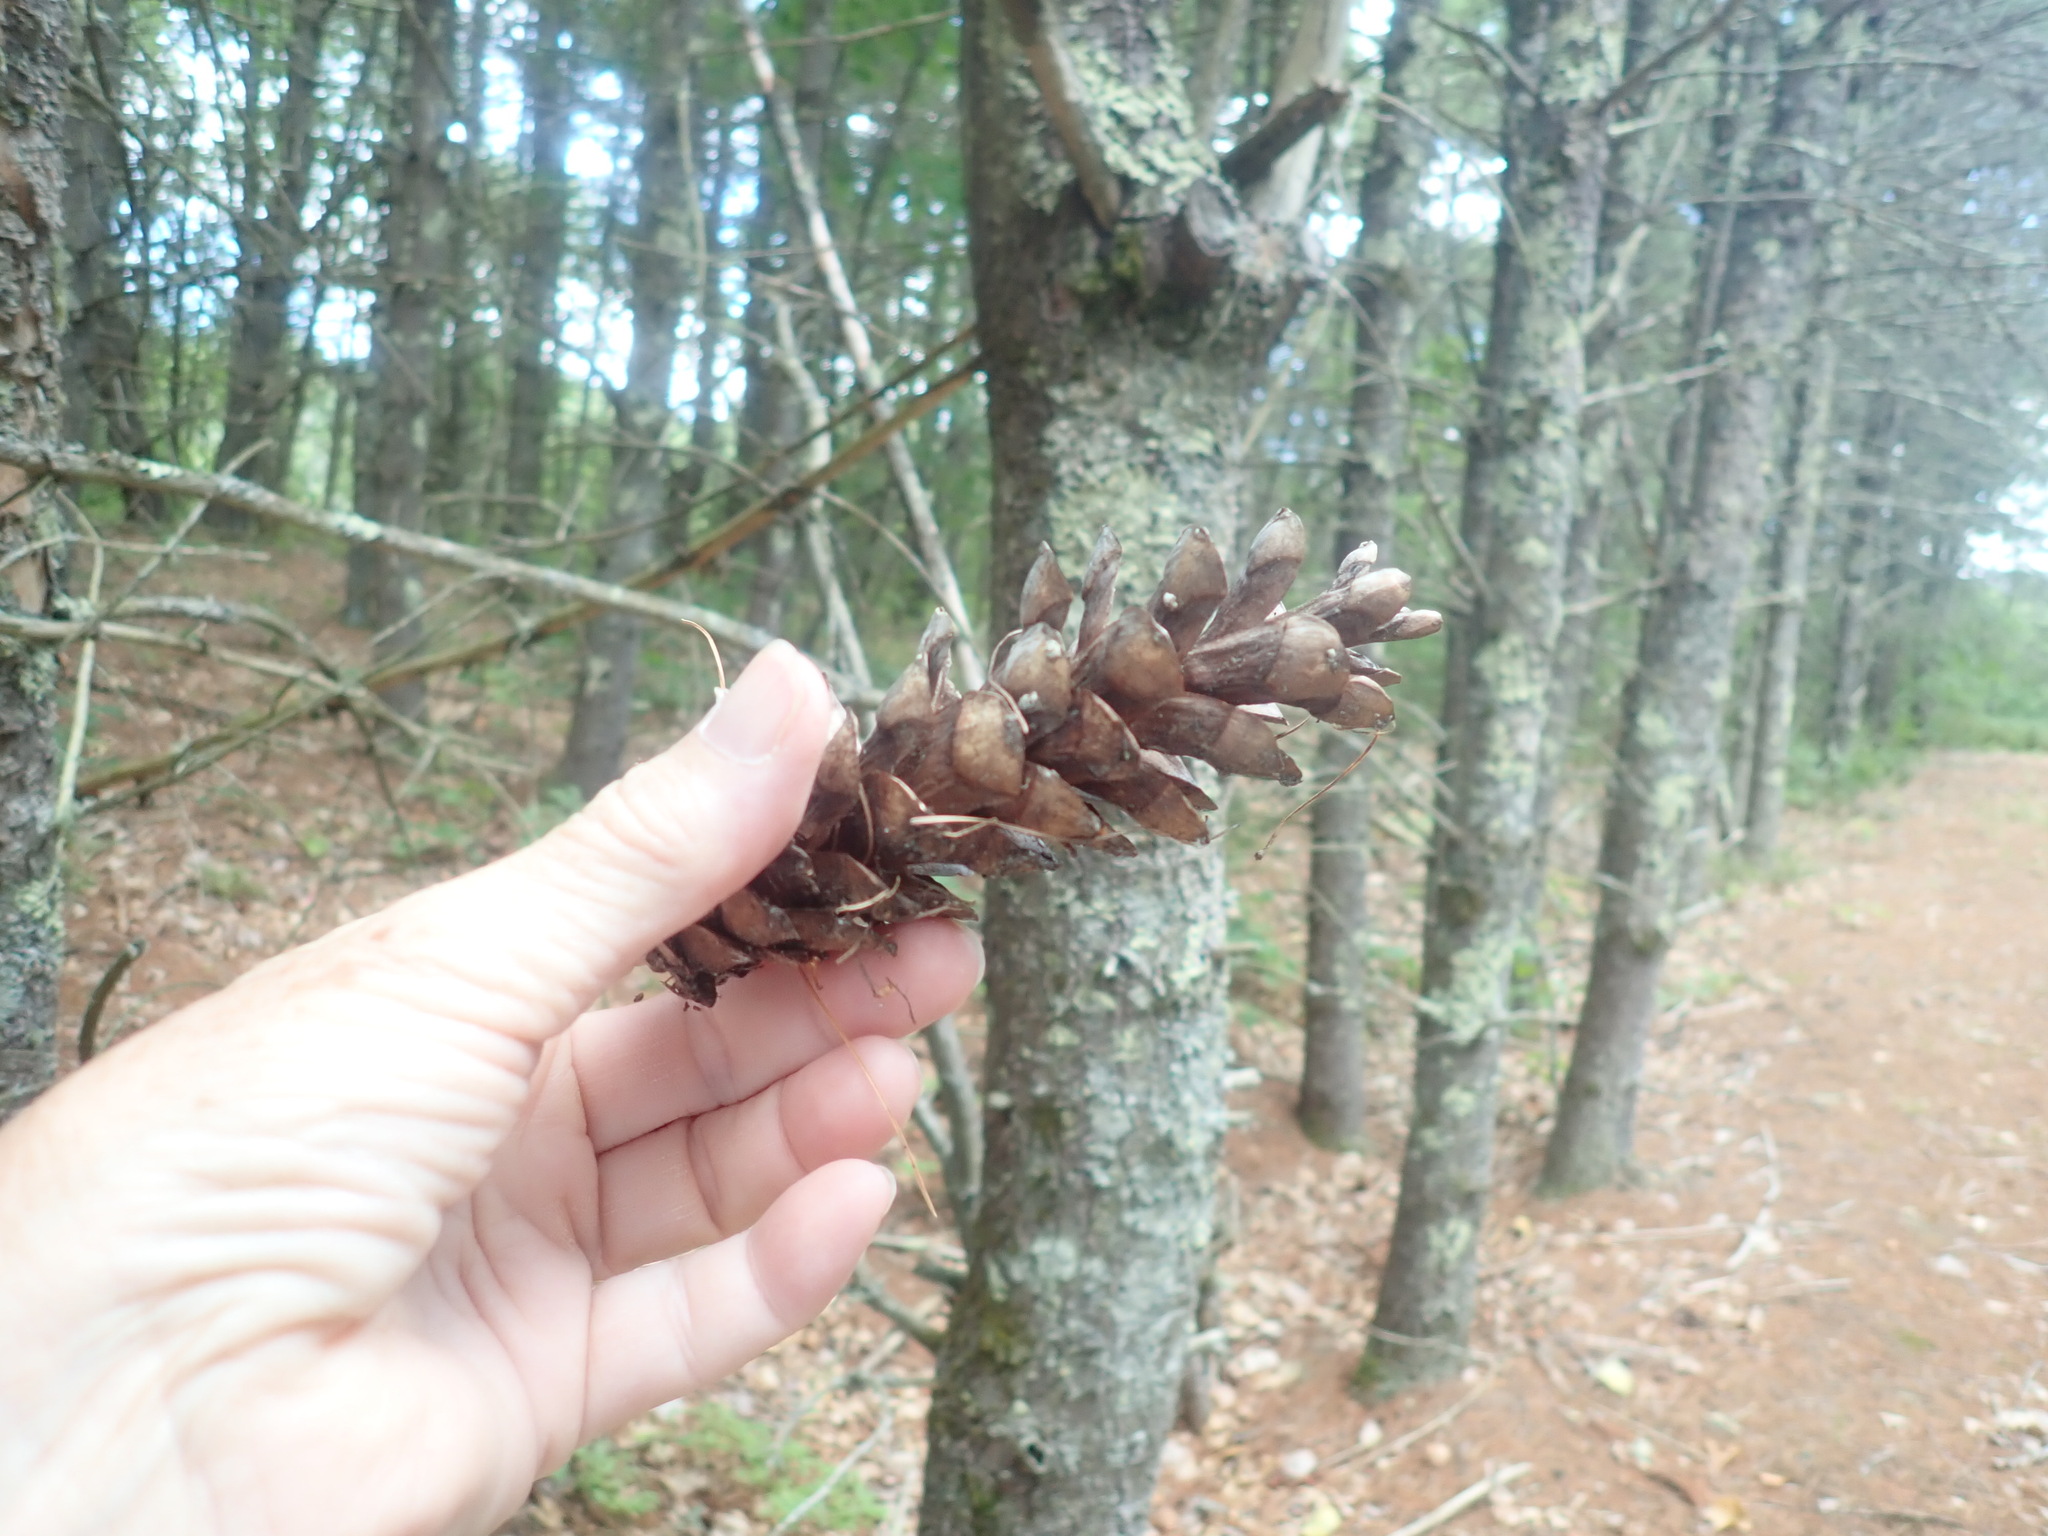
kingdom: Plantae
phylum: Tracheophyta
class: Pinopsida
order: Pinales
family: Pinaceae
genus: Pinus
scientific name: Pinus strobus
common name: Weymouth pine
